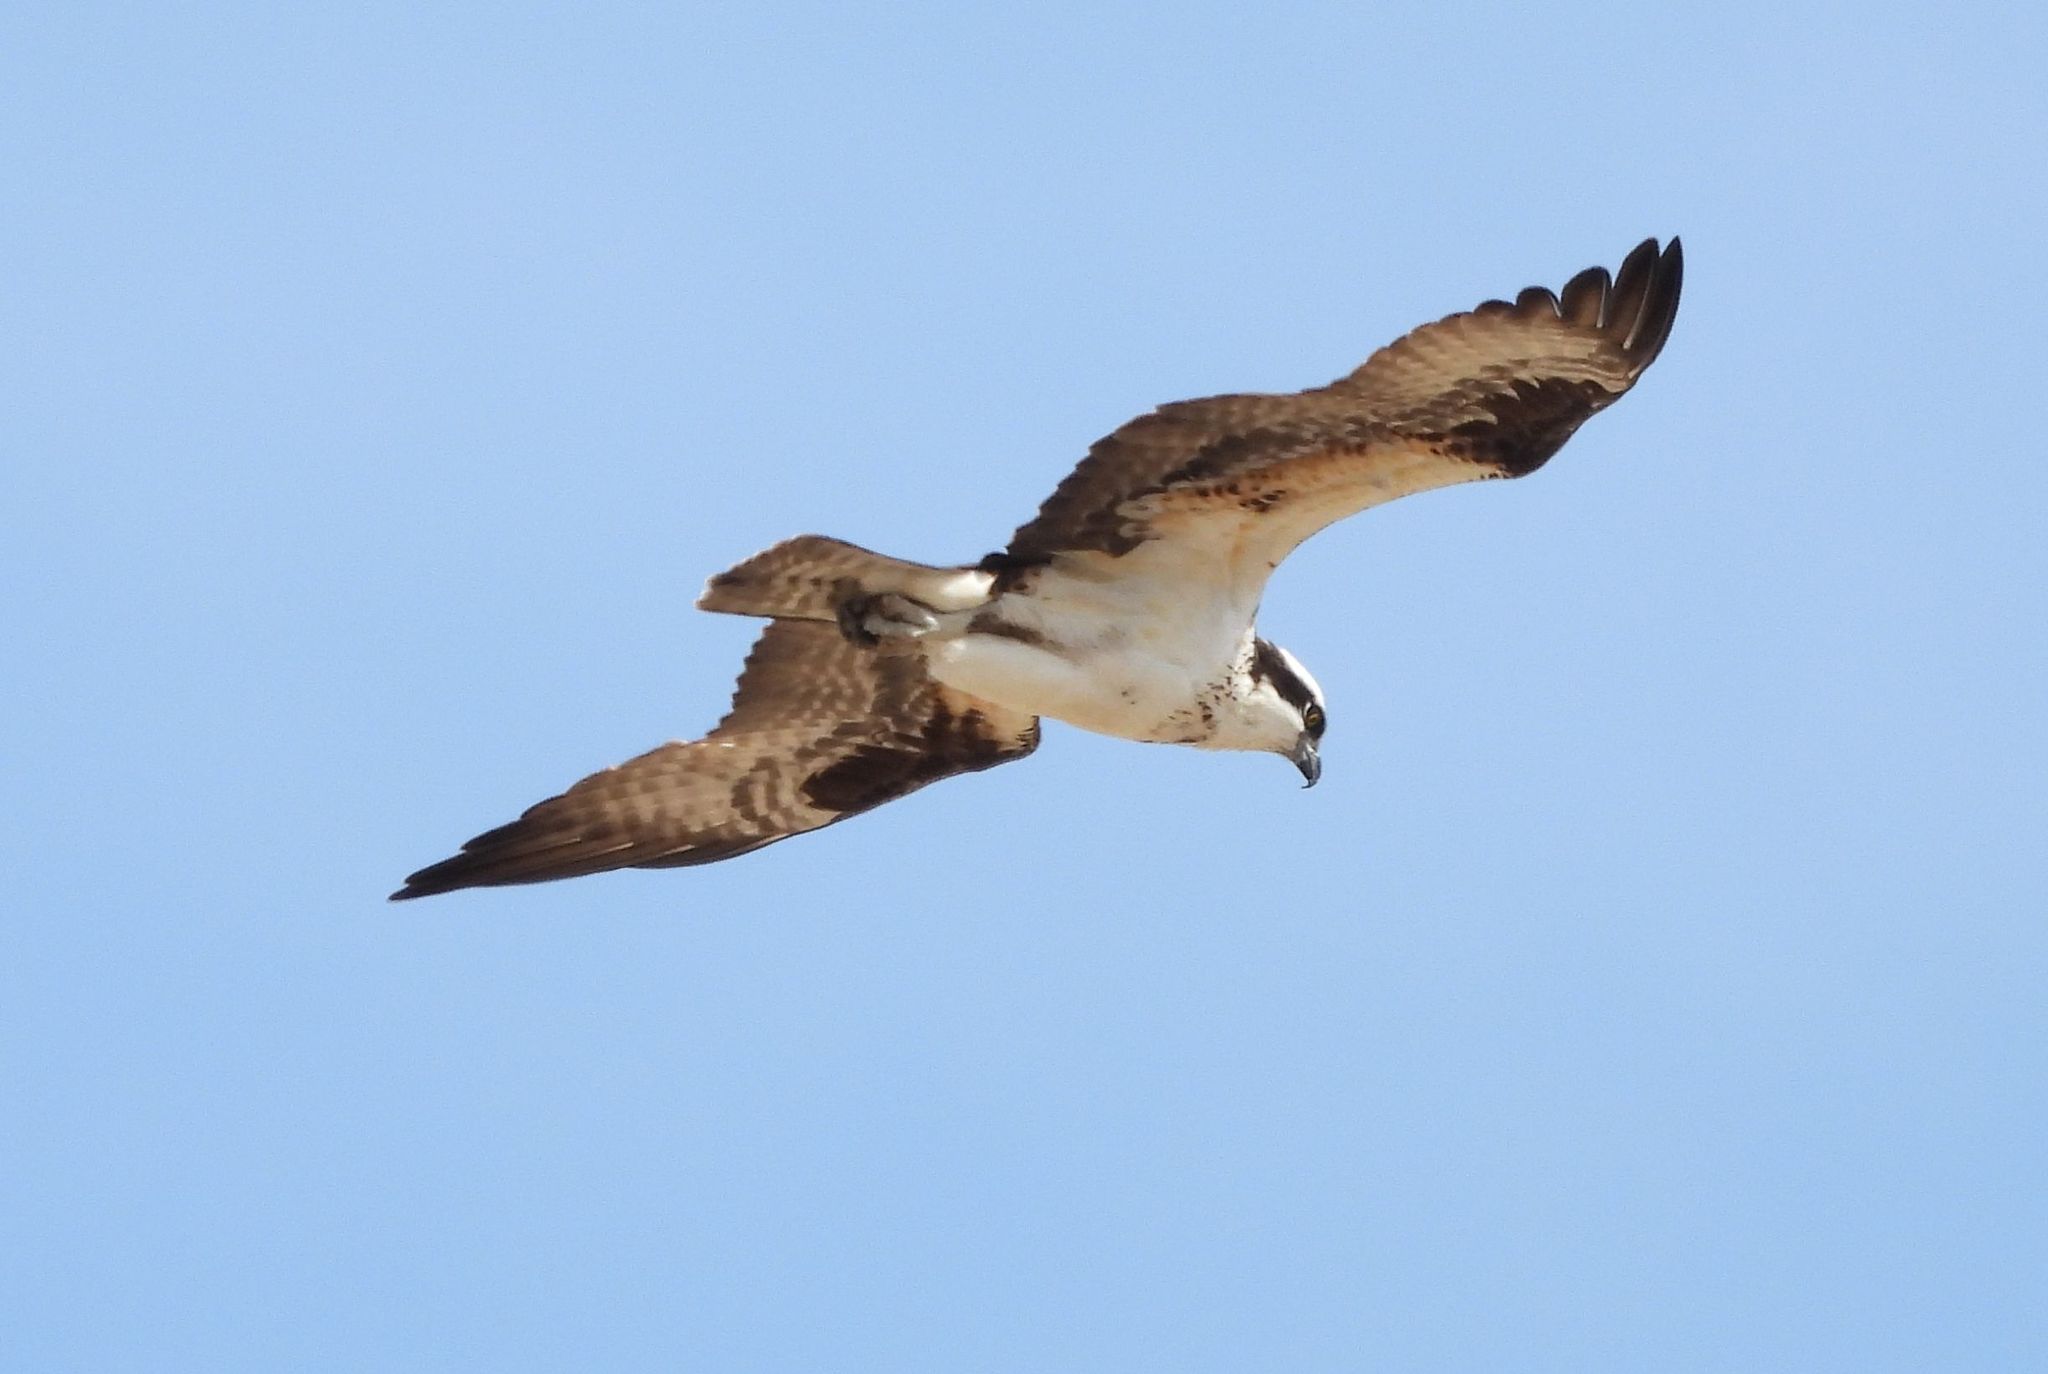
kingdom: Animalia
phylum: Chordata
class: Aves
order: Accipitriformes
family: Pandionidae
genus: Pandion
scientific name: Pandion haliaetus
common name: Osprey
